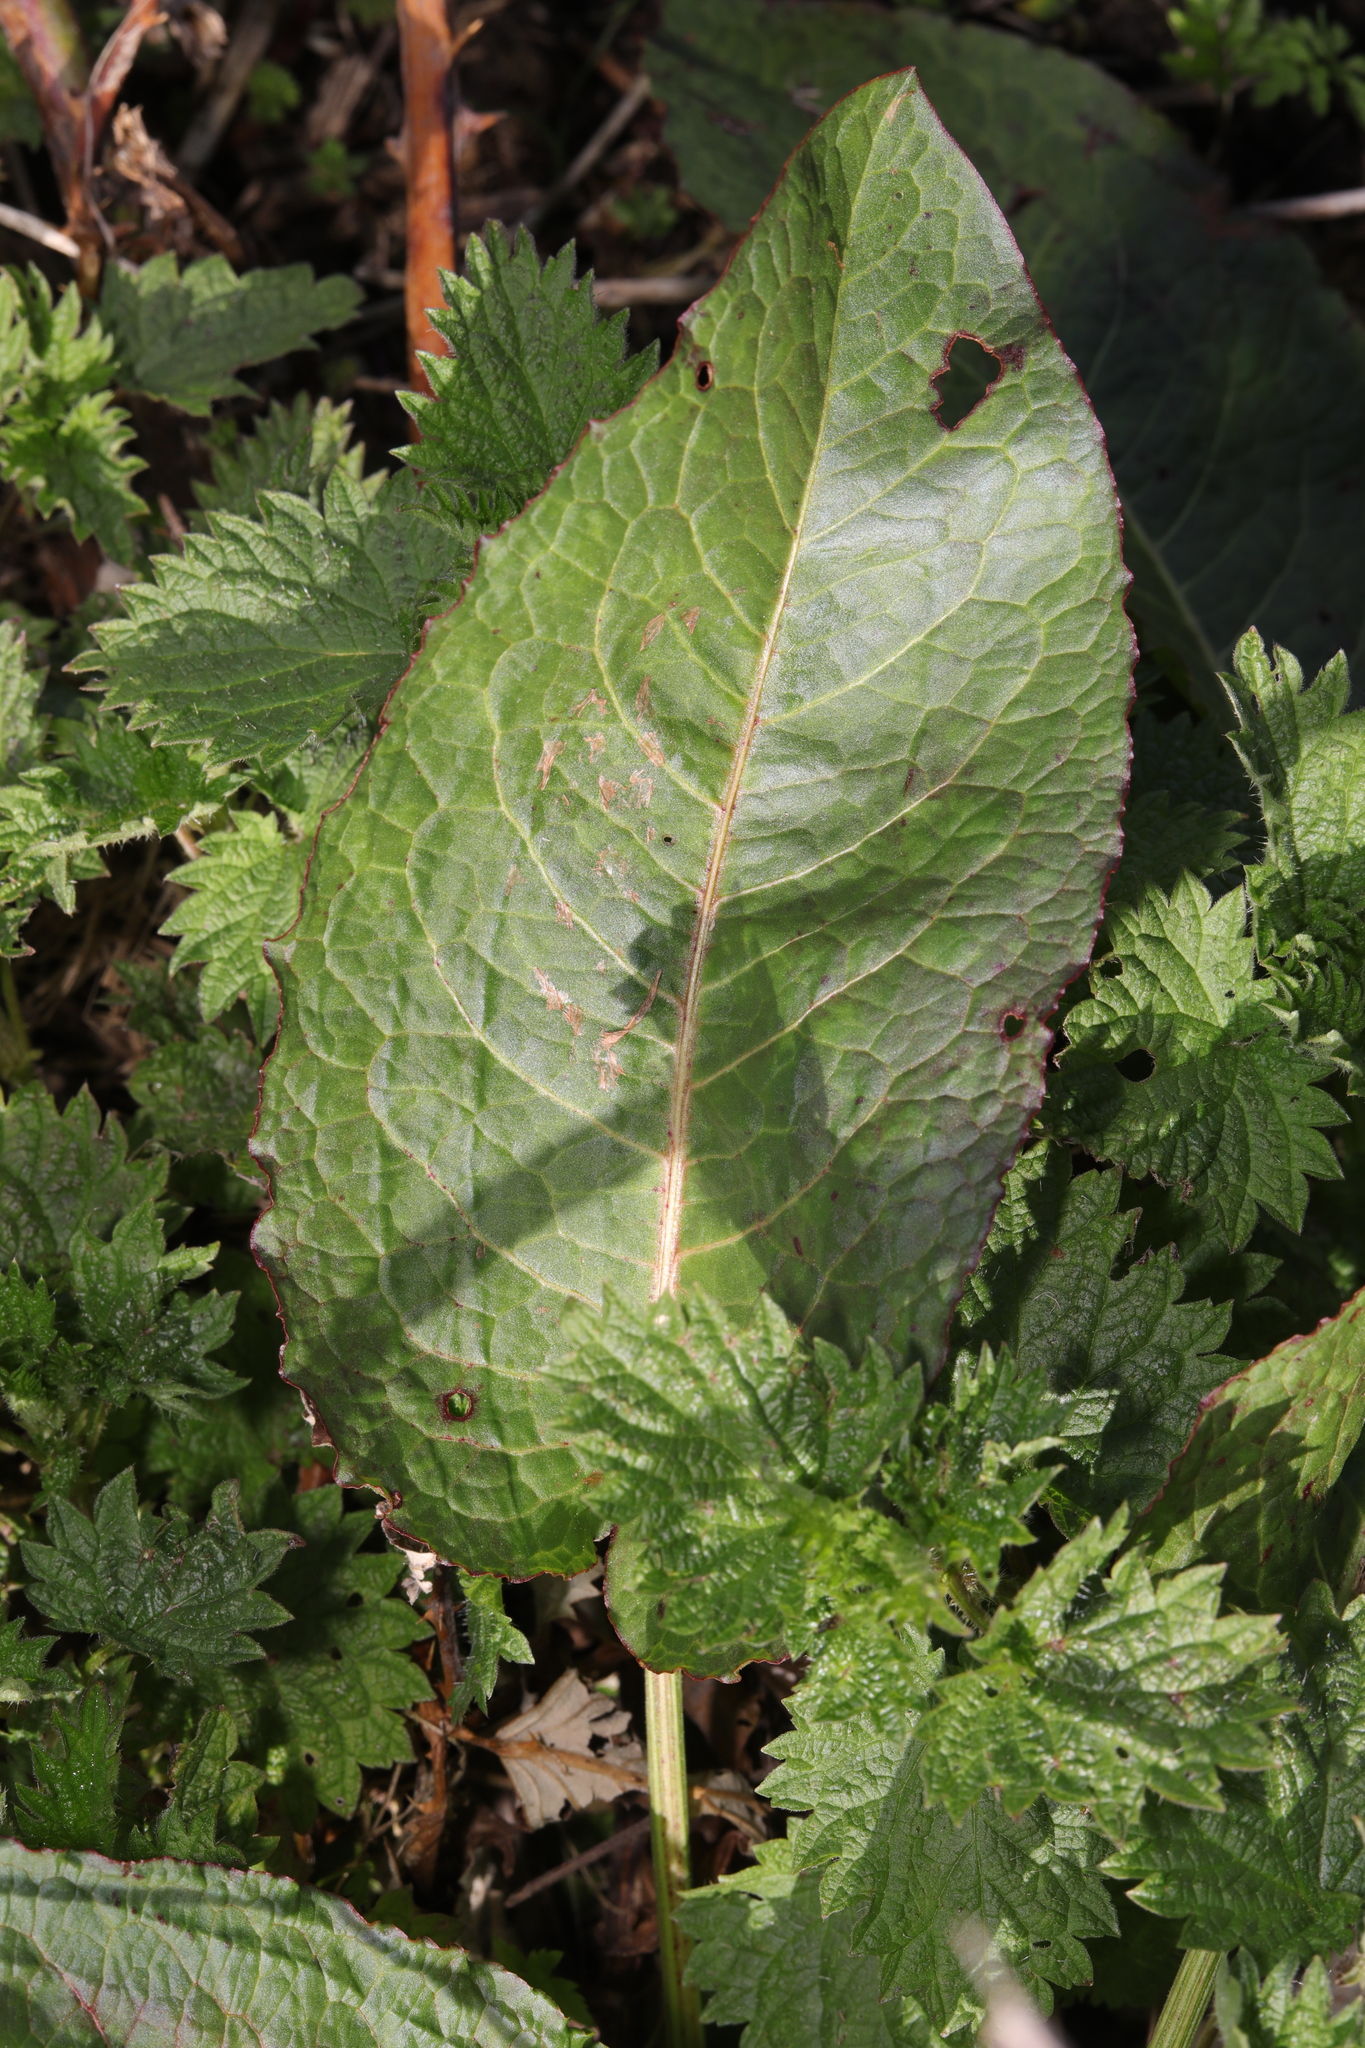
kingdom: Plantae
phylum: Tracheophyta
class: Magnoliopsida
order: Caryophyllales
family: Polygonaceae
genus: Rumex
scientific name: Rumex obtusifolius
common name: Bitter dock
